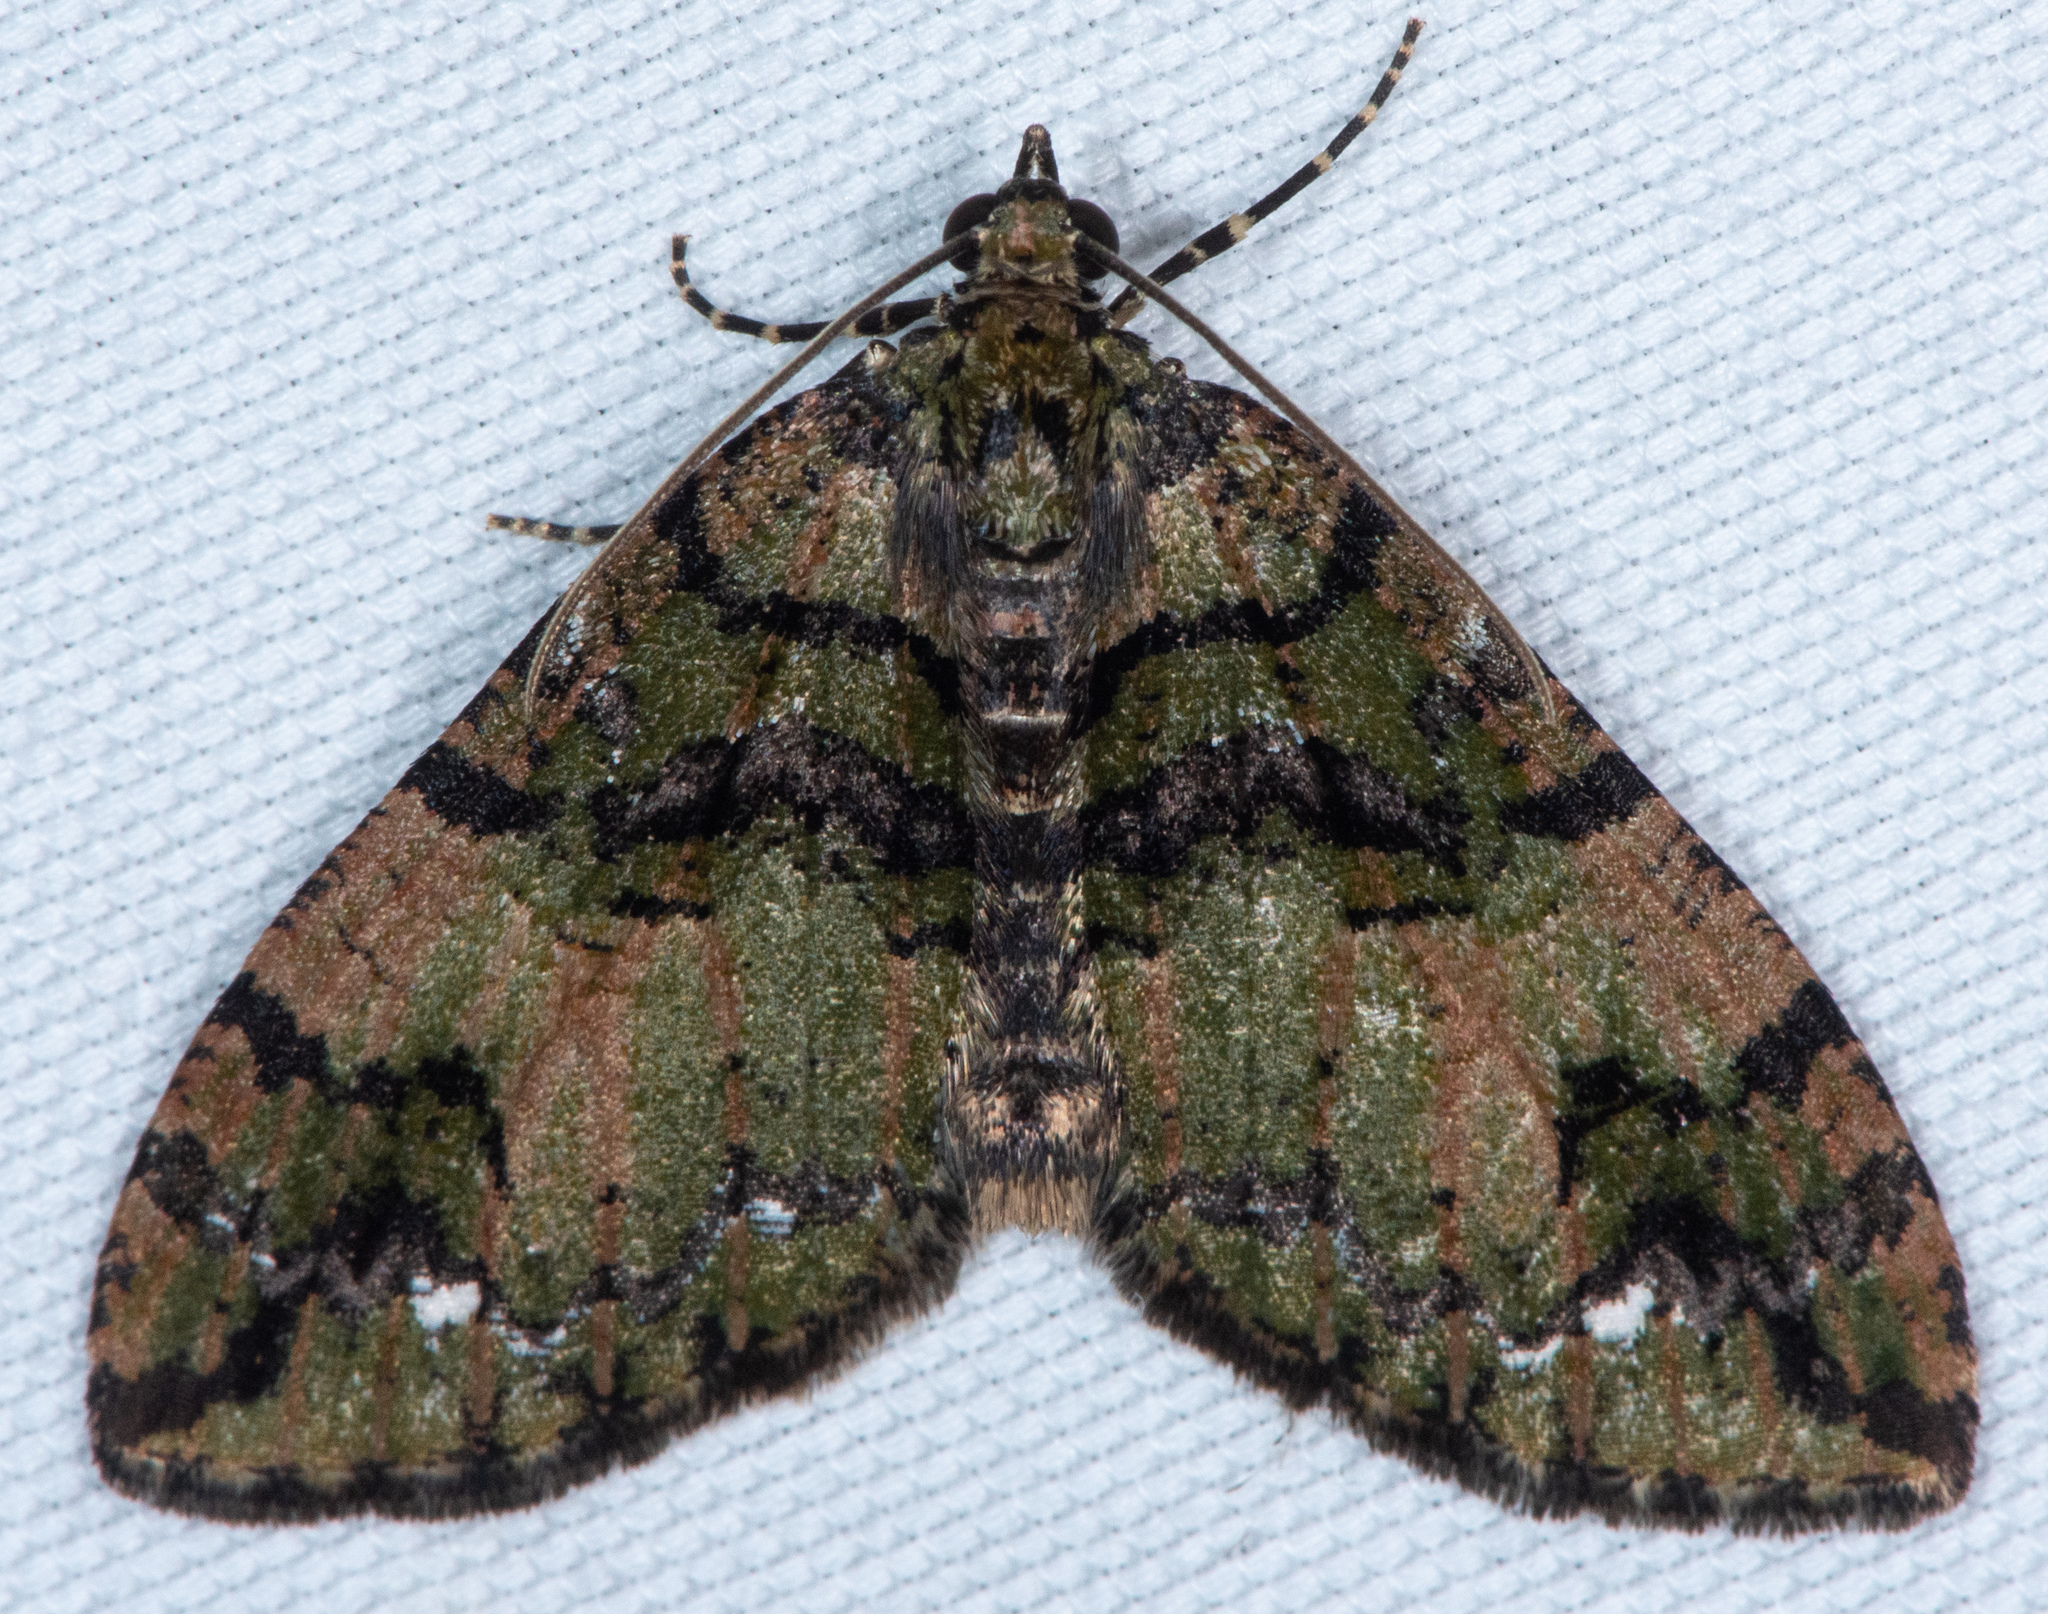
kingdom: Animalia
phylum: Arthropoda
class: Insecta
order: Lepidoptera
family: Geometridae
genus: Hydriomena
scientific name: Hydriomena albifasciata
